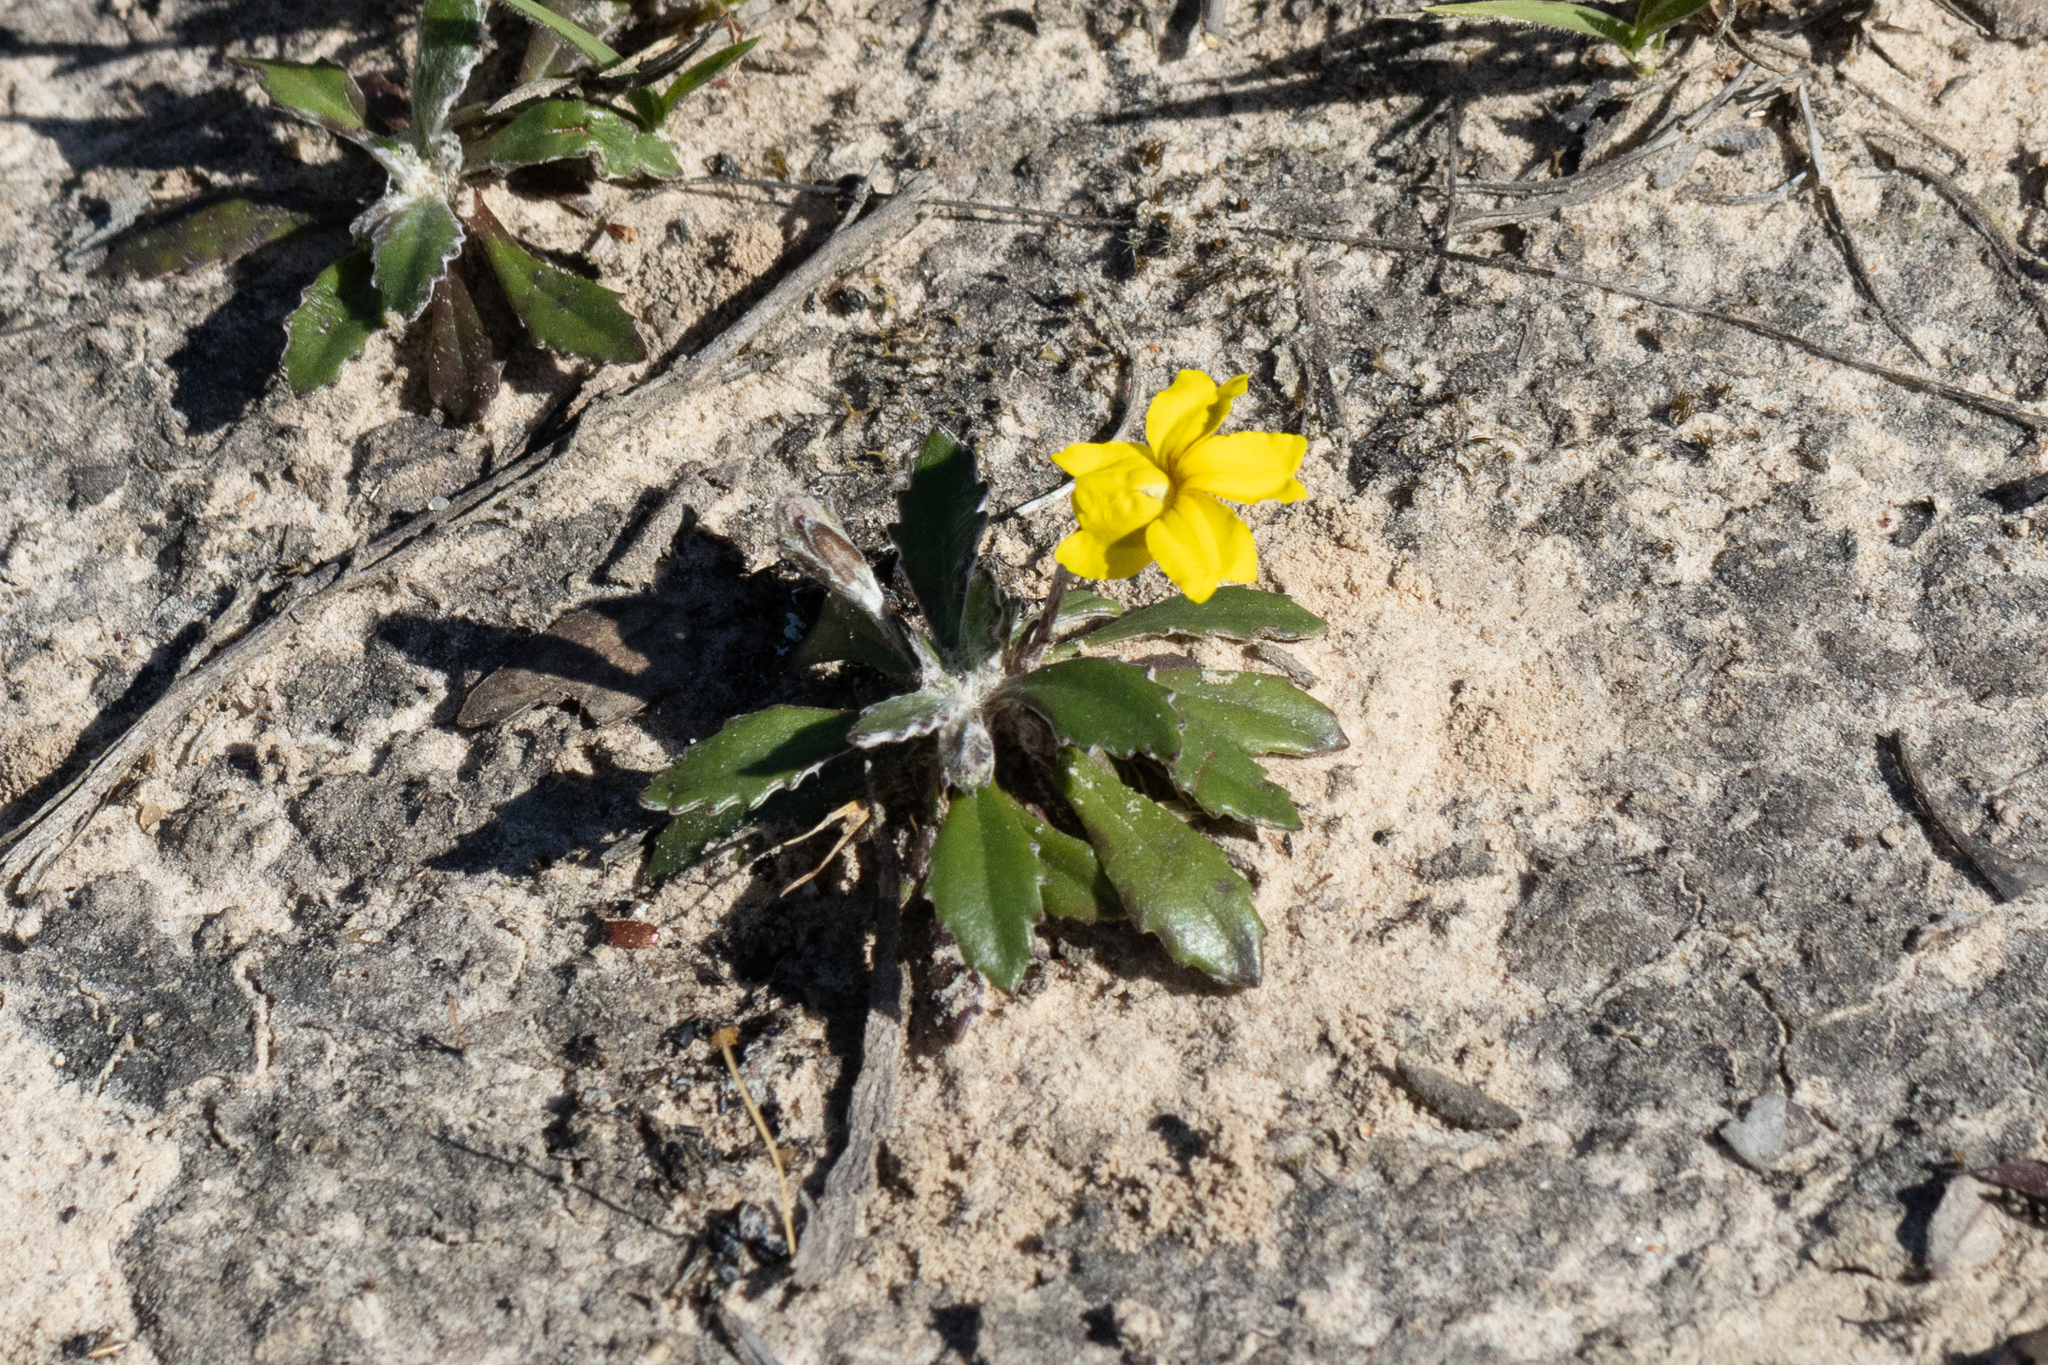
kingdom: Plantae
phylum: Tracheophyta
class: Magnoliopsida
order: Asterales
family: Goodeniaceae
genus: Goodenia
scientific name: Goodenia blackiana
